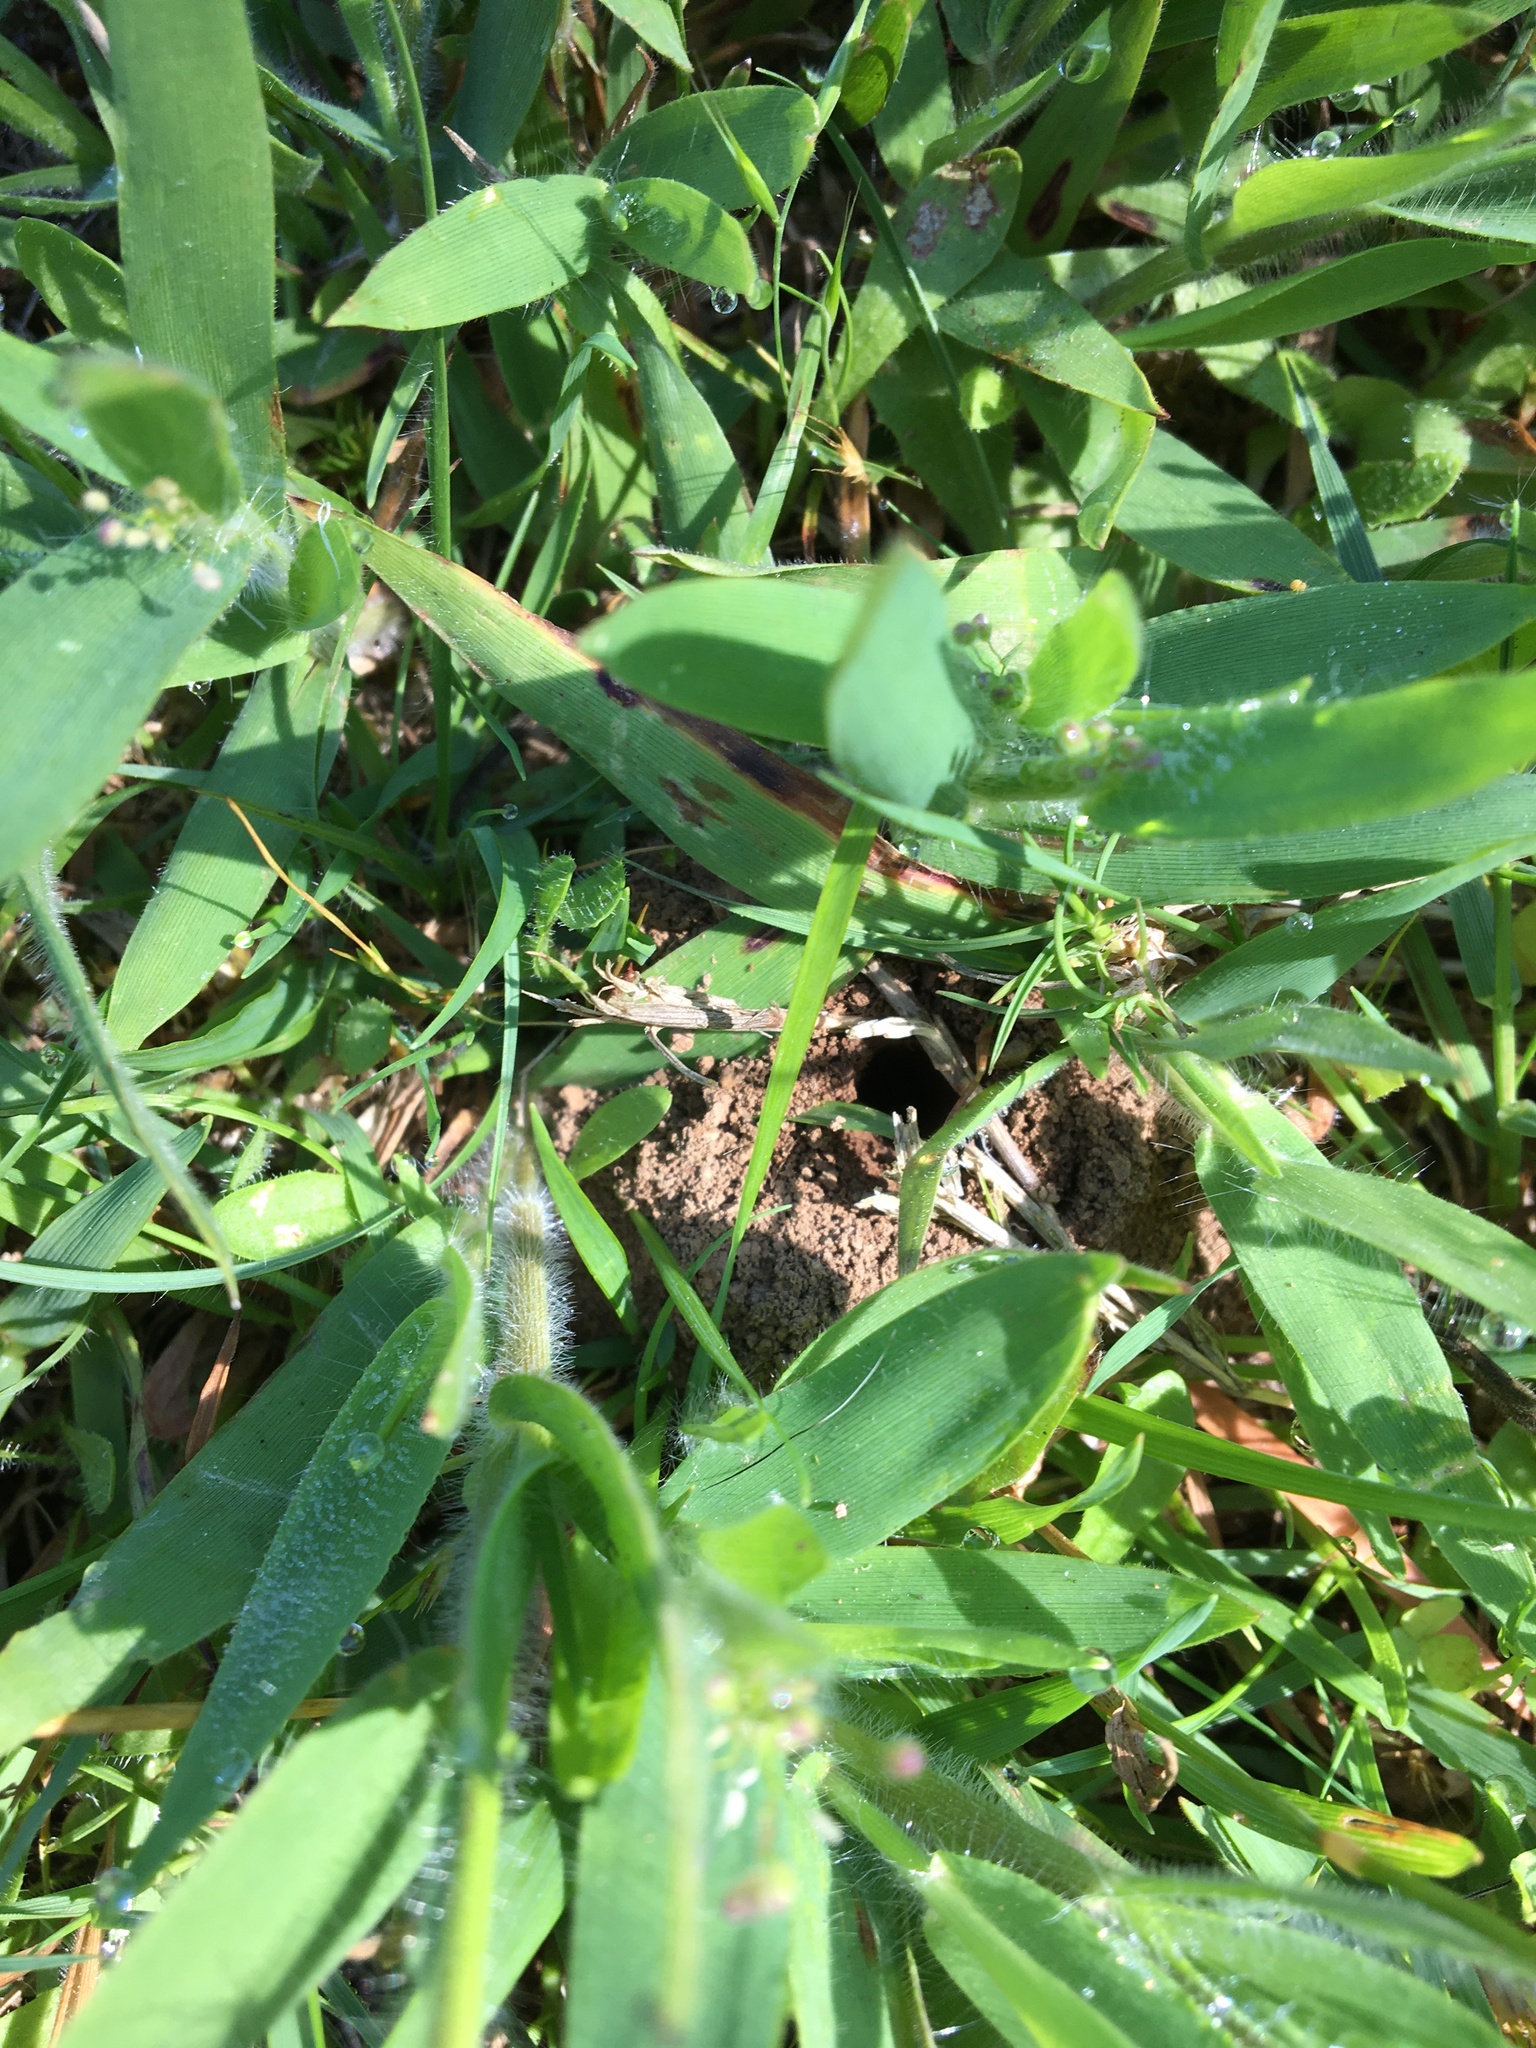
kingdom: Animalia
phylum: Arthropoda
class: Insecta
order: Hymenoptera
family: Halictidae
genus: Agapostemon
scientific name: Agapostemon virescens
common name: Bicolored striped sweat bee
